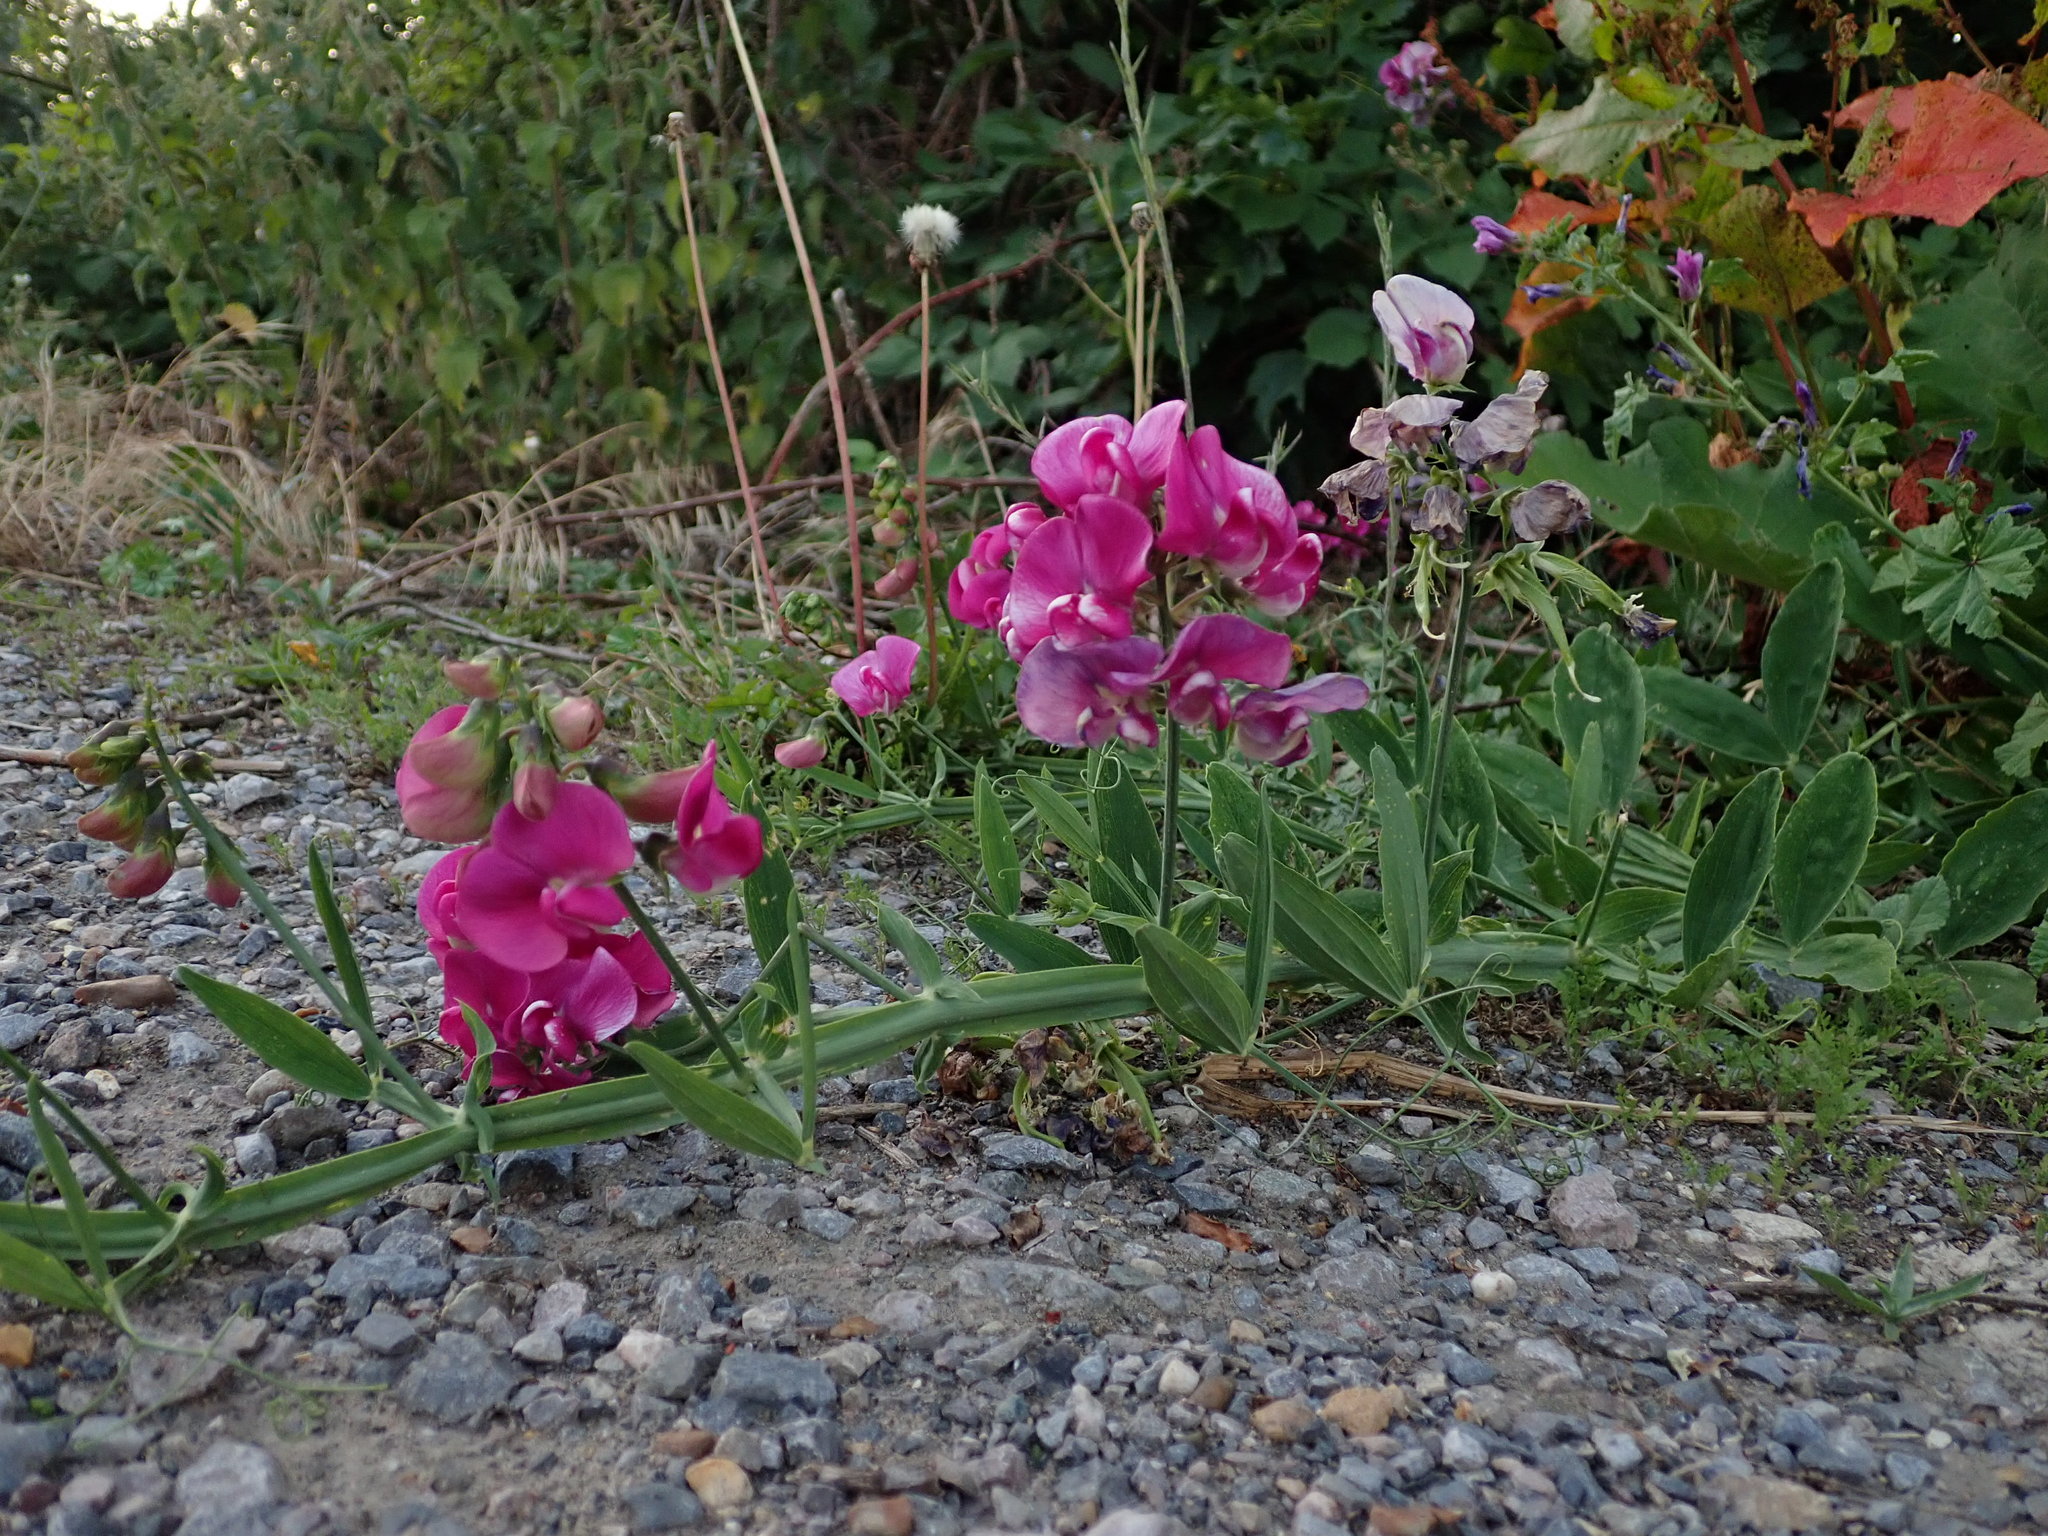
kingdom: Plantae
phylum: Tracheophyta
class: Magnoliopsida
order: Fabales
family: Fabaceae
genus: Lathyrus
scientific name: Lathyrus latifolius
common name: Perennial pea
